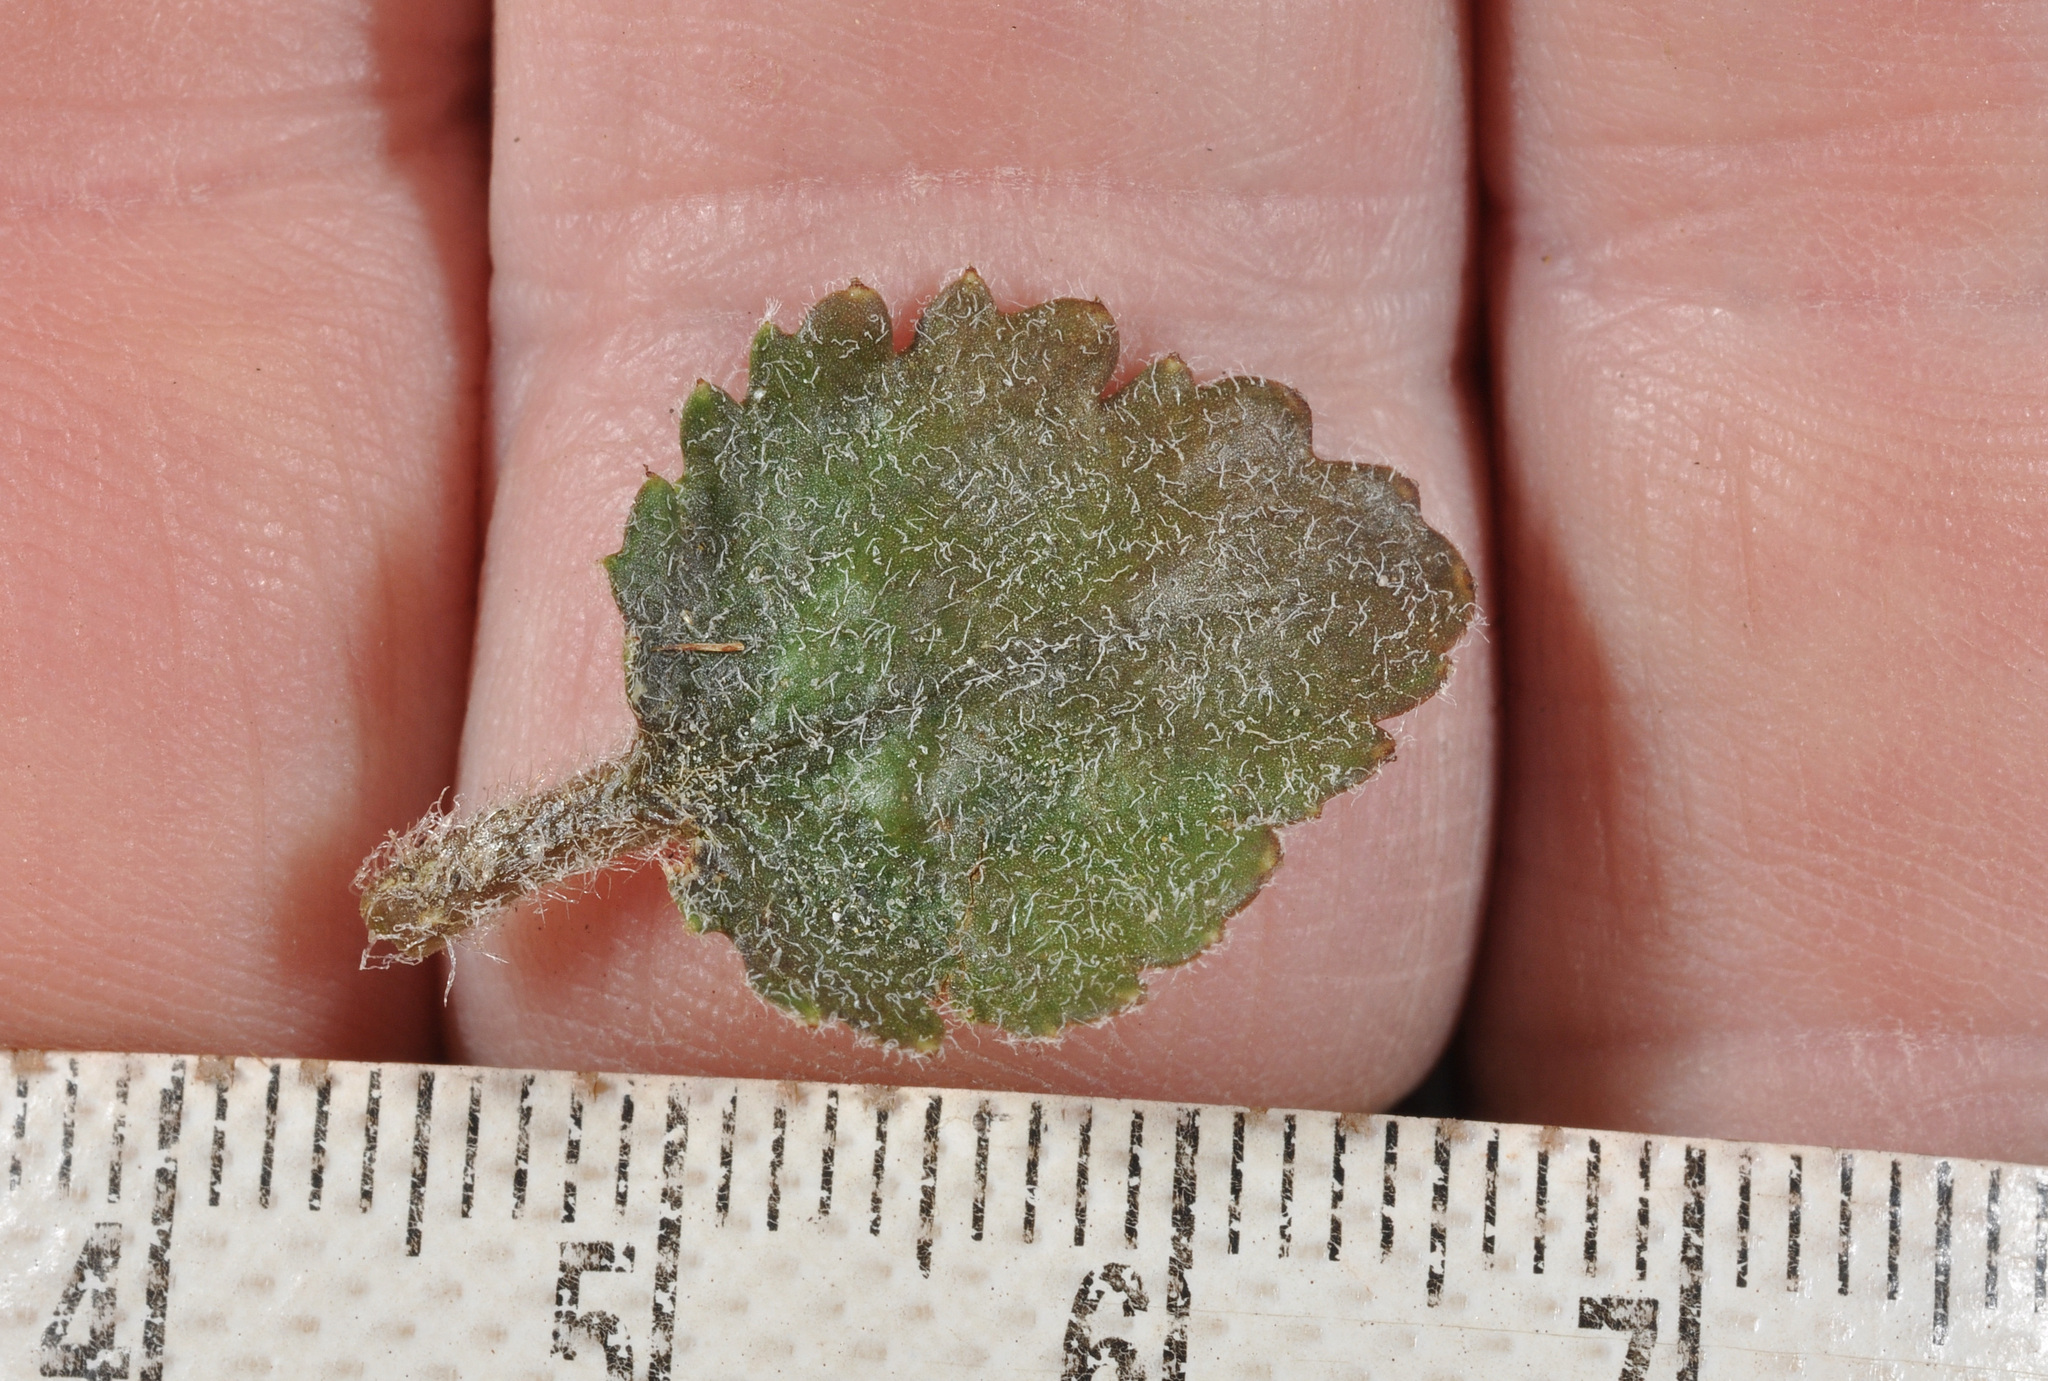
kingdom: Plantae
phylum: Tracheophyta
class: Magnoliopsida
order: Gunnerales
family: Gunneraceae
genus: Gunnera
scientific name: Gunnera dentata
